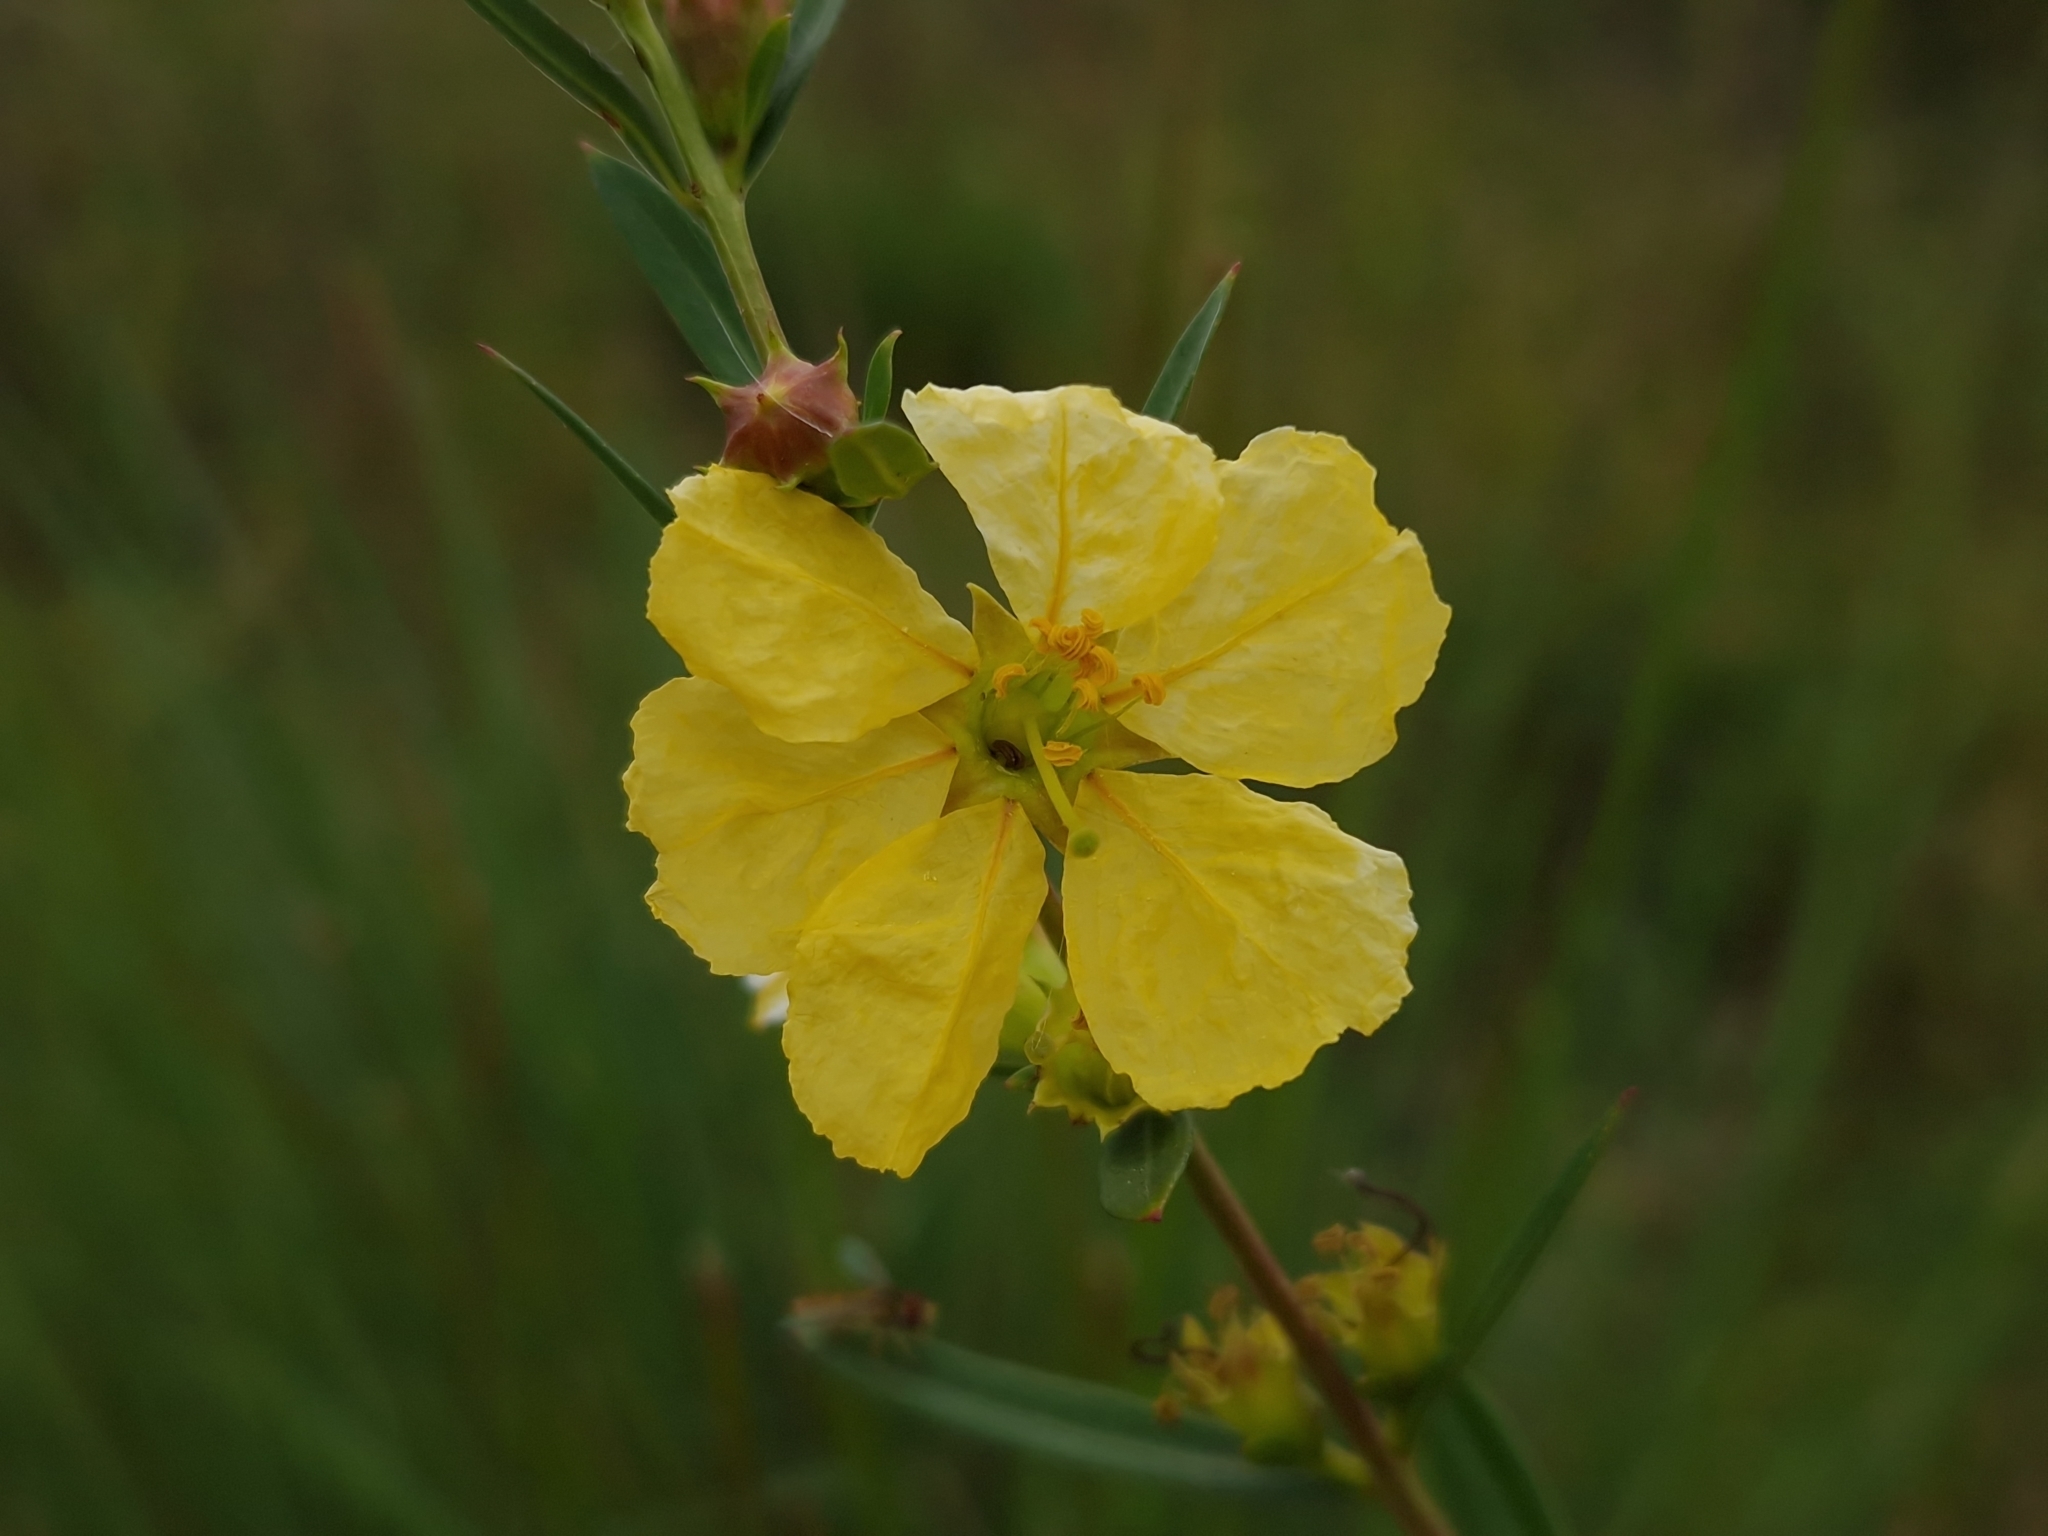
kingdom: Plantae
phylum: Tracheophyta
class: Magnoliopsida
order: Myrtales
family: Lythraceae
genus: Heimia
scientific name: Heimia salicifolia
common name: Willow-leaf heimia
